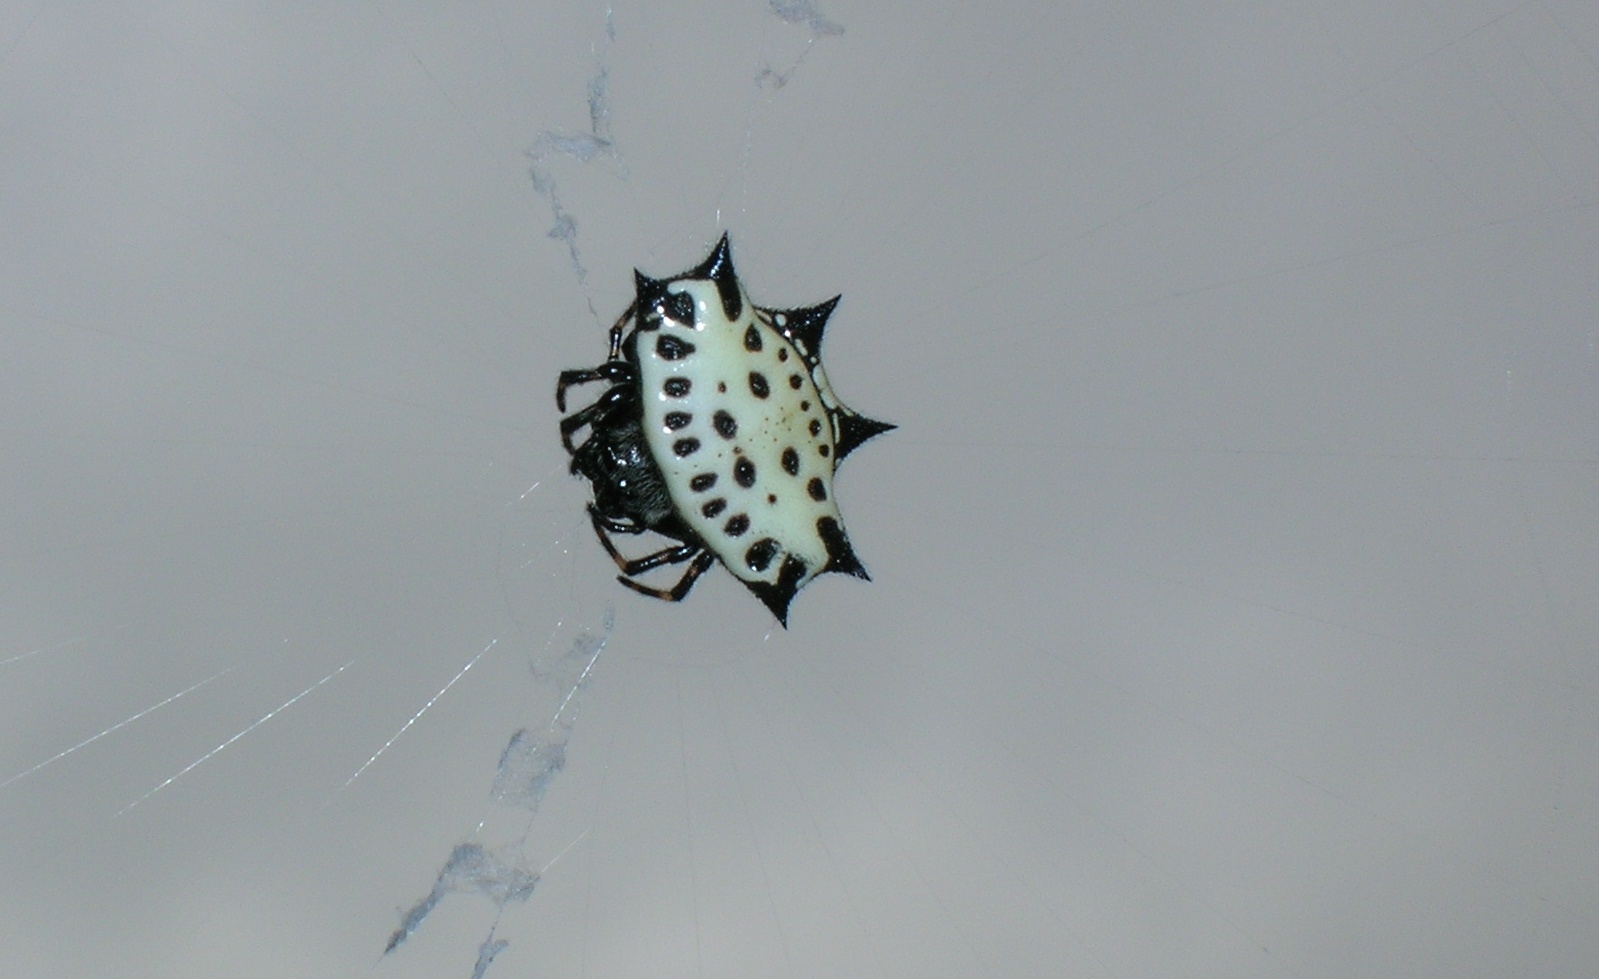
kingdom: Animalia
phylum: Arthropoda
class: Arachnida
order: Araneae
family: Araneidae
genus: Gasteracantha
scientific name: Gasteracantha cancriformis
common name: Orb weavers
